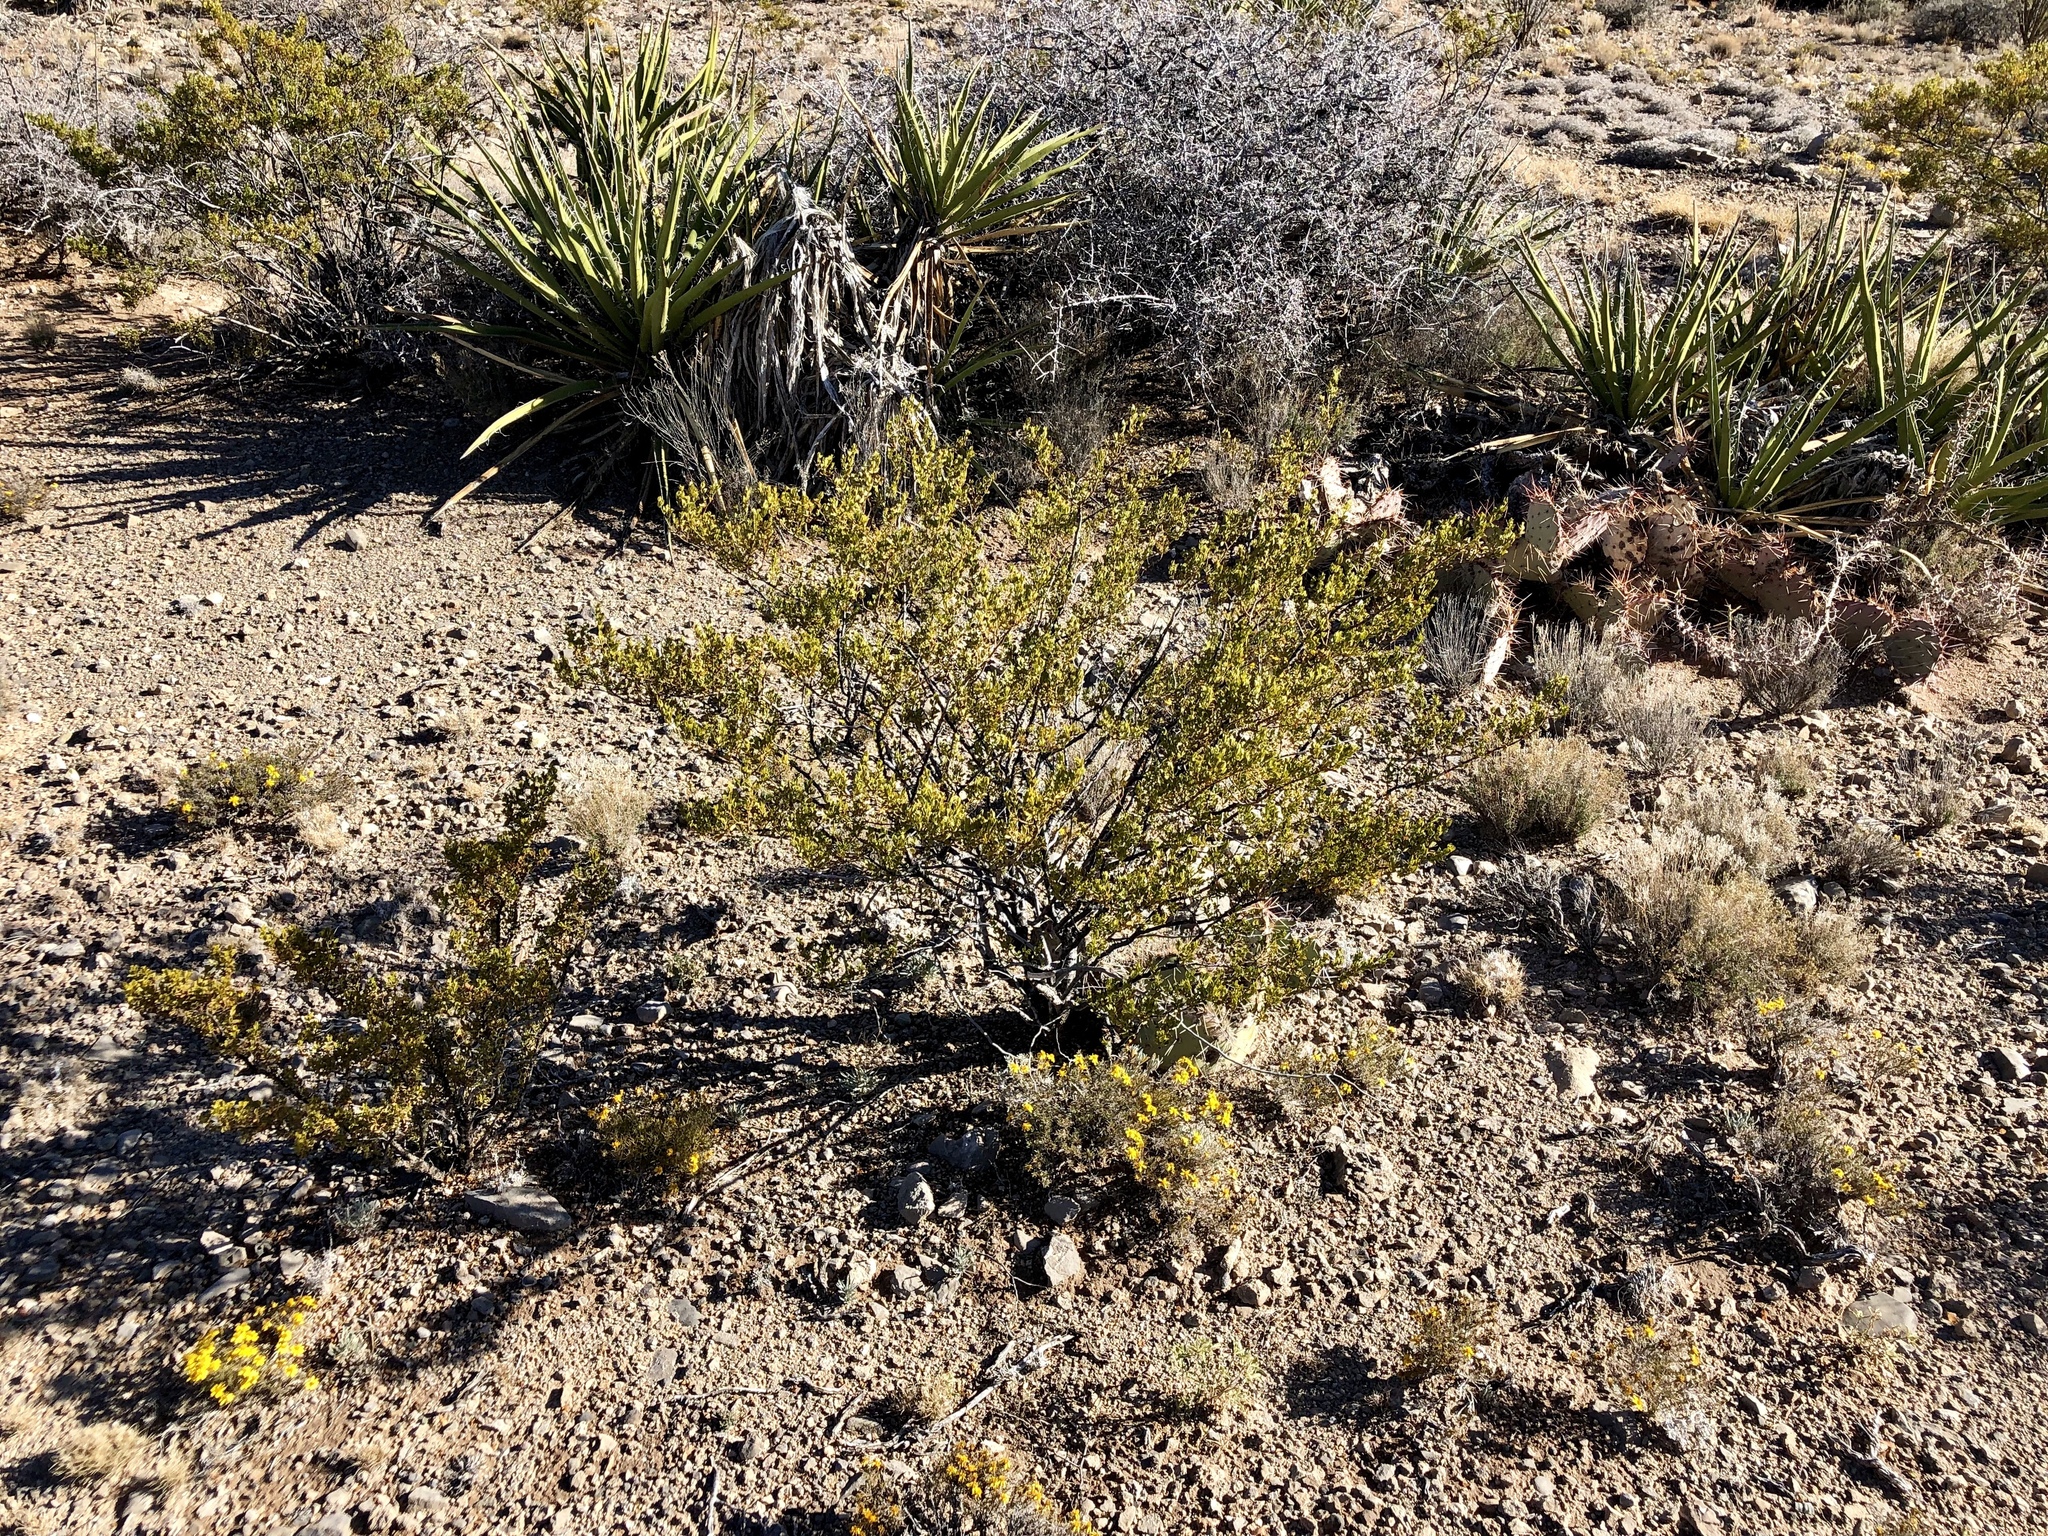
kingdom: Plantae
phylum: Tracheophyta
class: Magnoliopsida
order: Zygophyllales
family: Zygophyllaceae
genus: Larrea
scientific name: Larrea tridentata
